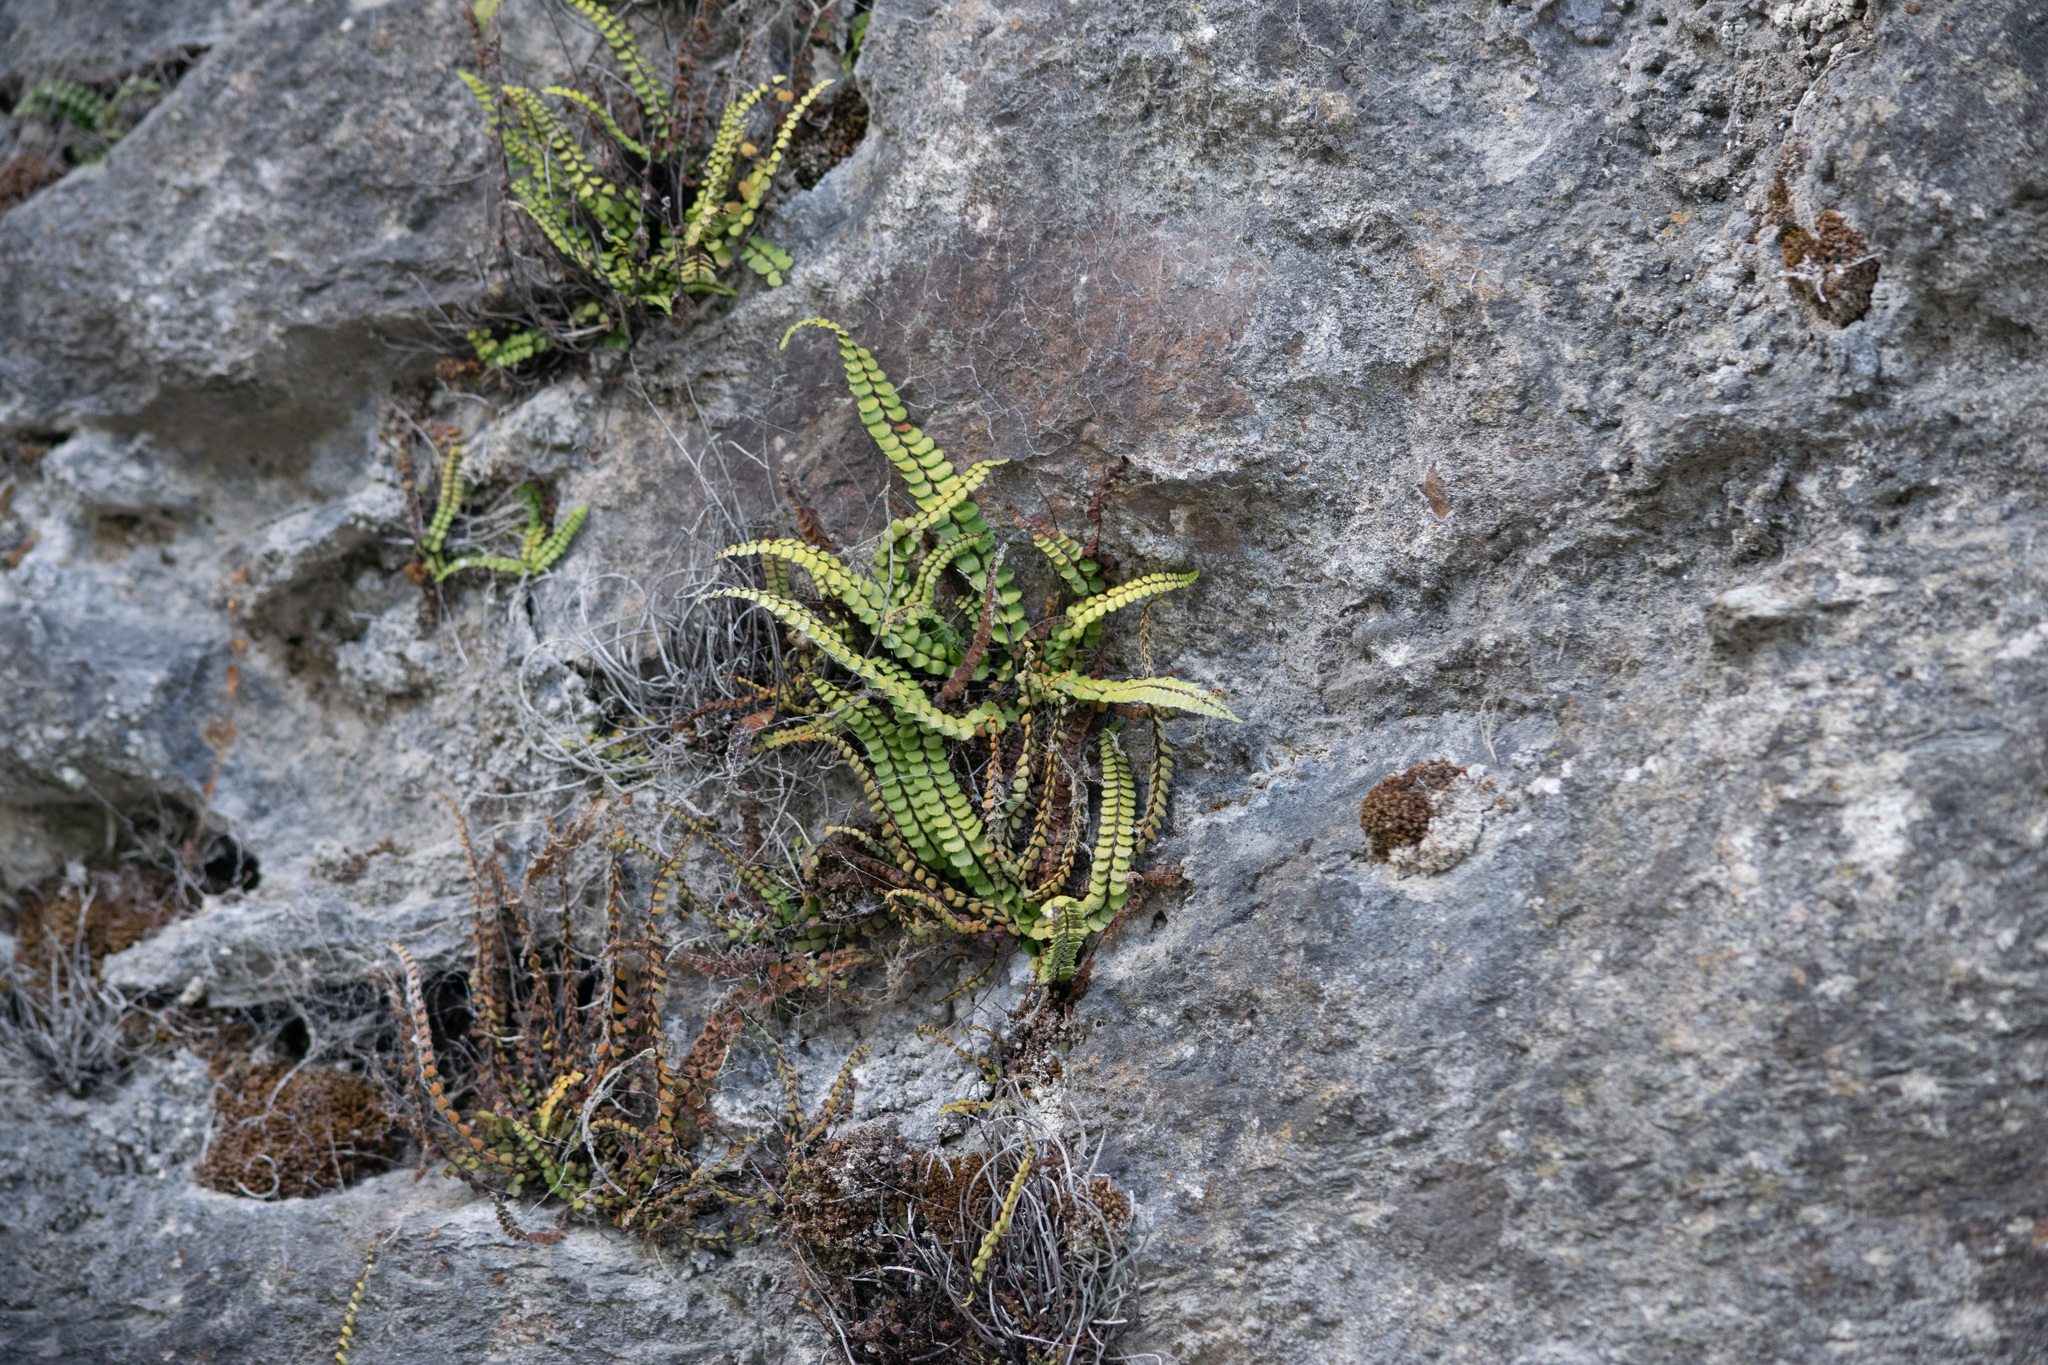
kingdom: Plantae
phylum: Tracheophyta
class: Polypodiopsida
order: Polypodiales
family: Aspleniaceae
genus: Asplenium
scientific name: Asplenium trichomanes
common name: Maidenhair spleenwort
